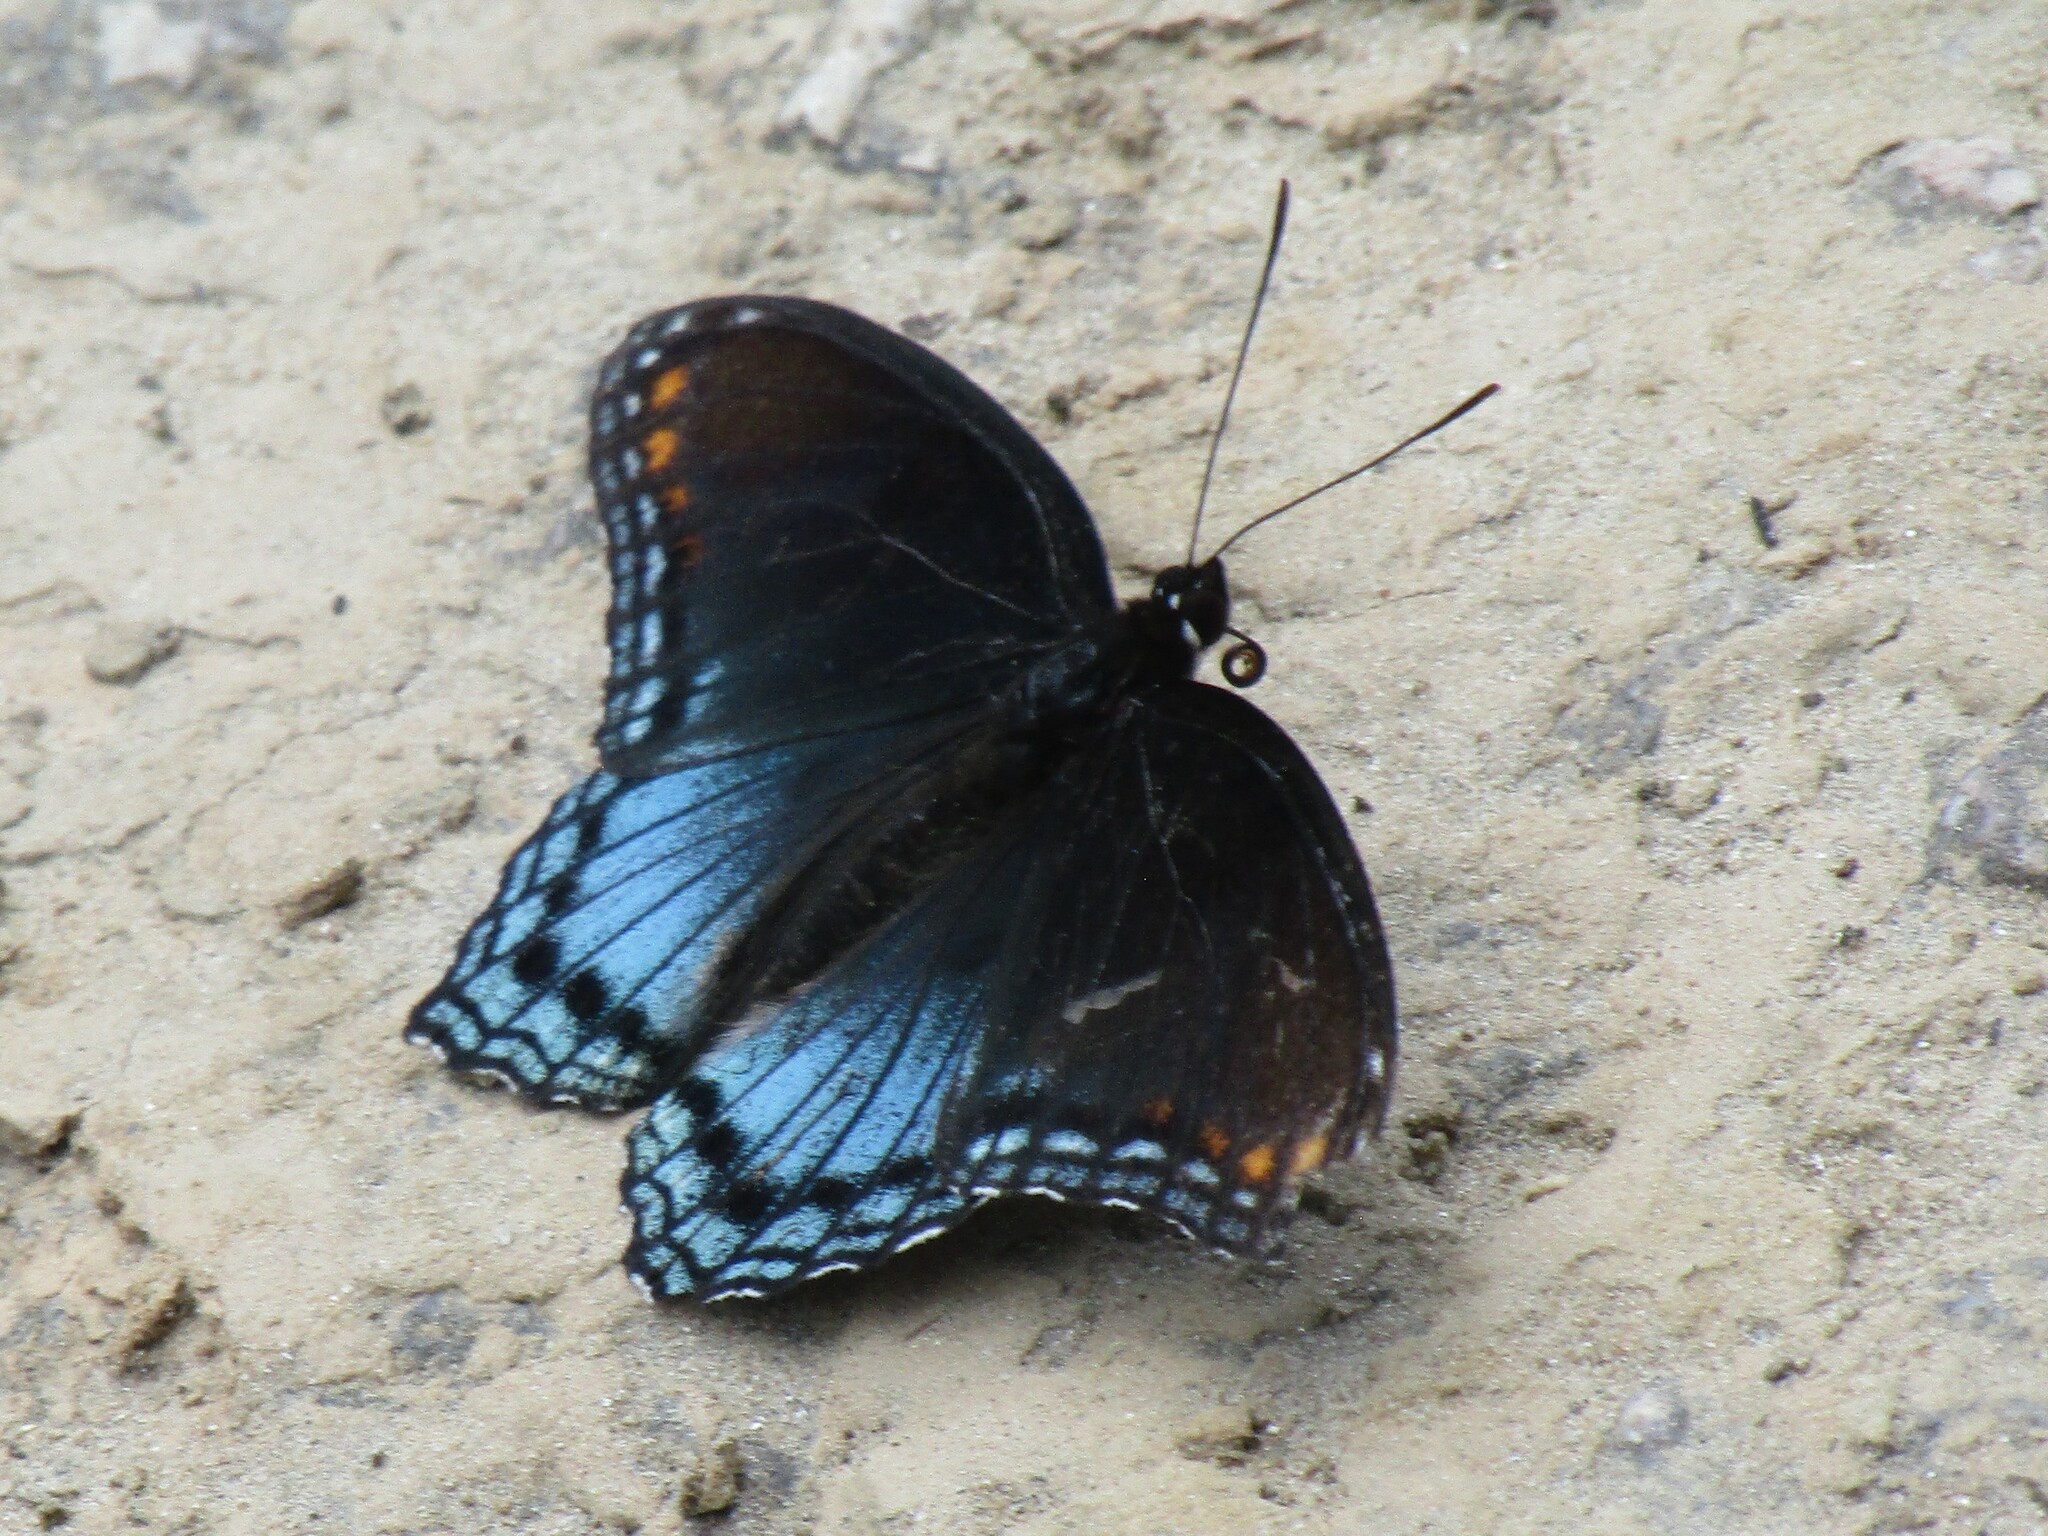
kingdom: Animalia
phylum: Arthropoda
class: Insecta
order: Lepidoptera
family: Nymphalidae
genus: Limenitis
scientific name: Limenitis astyanax
